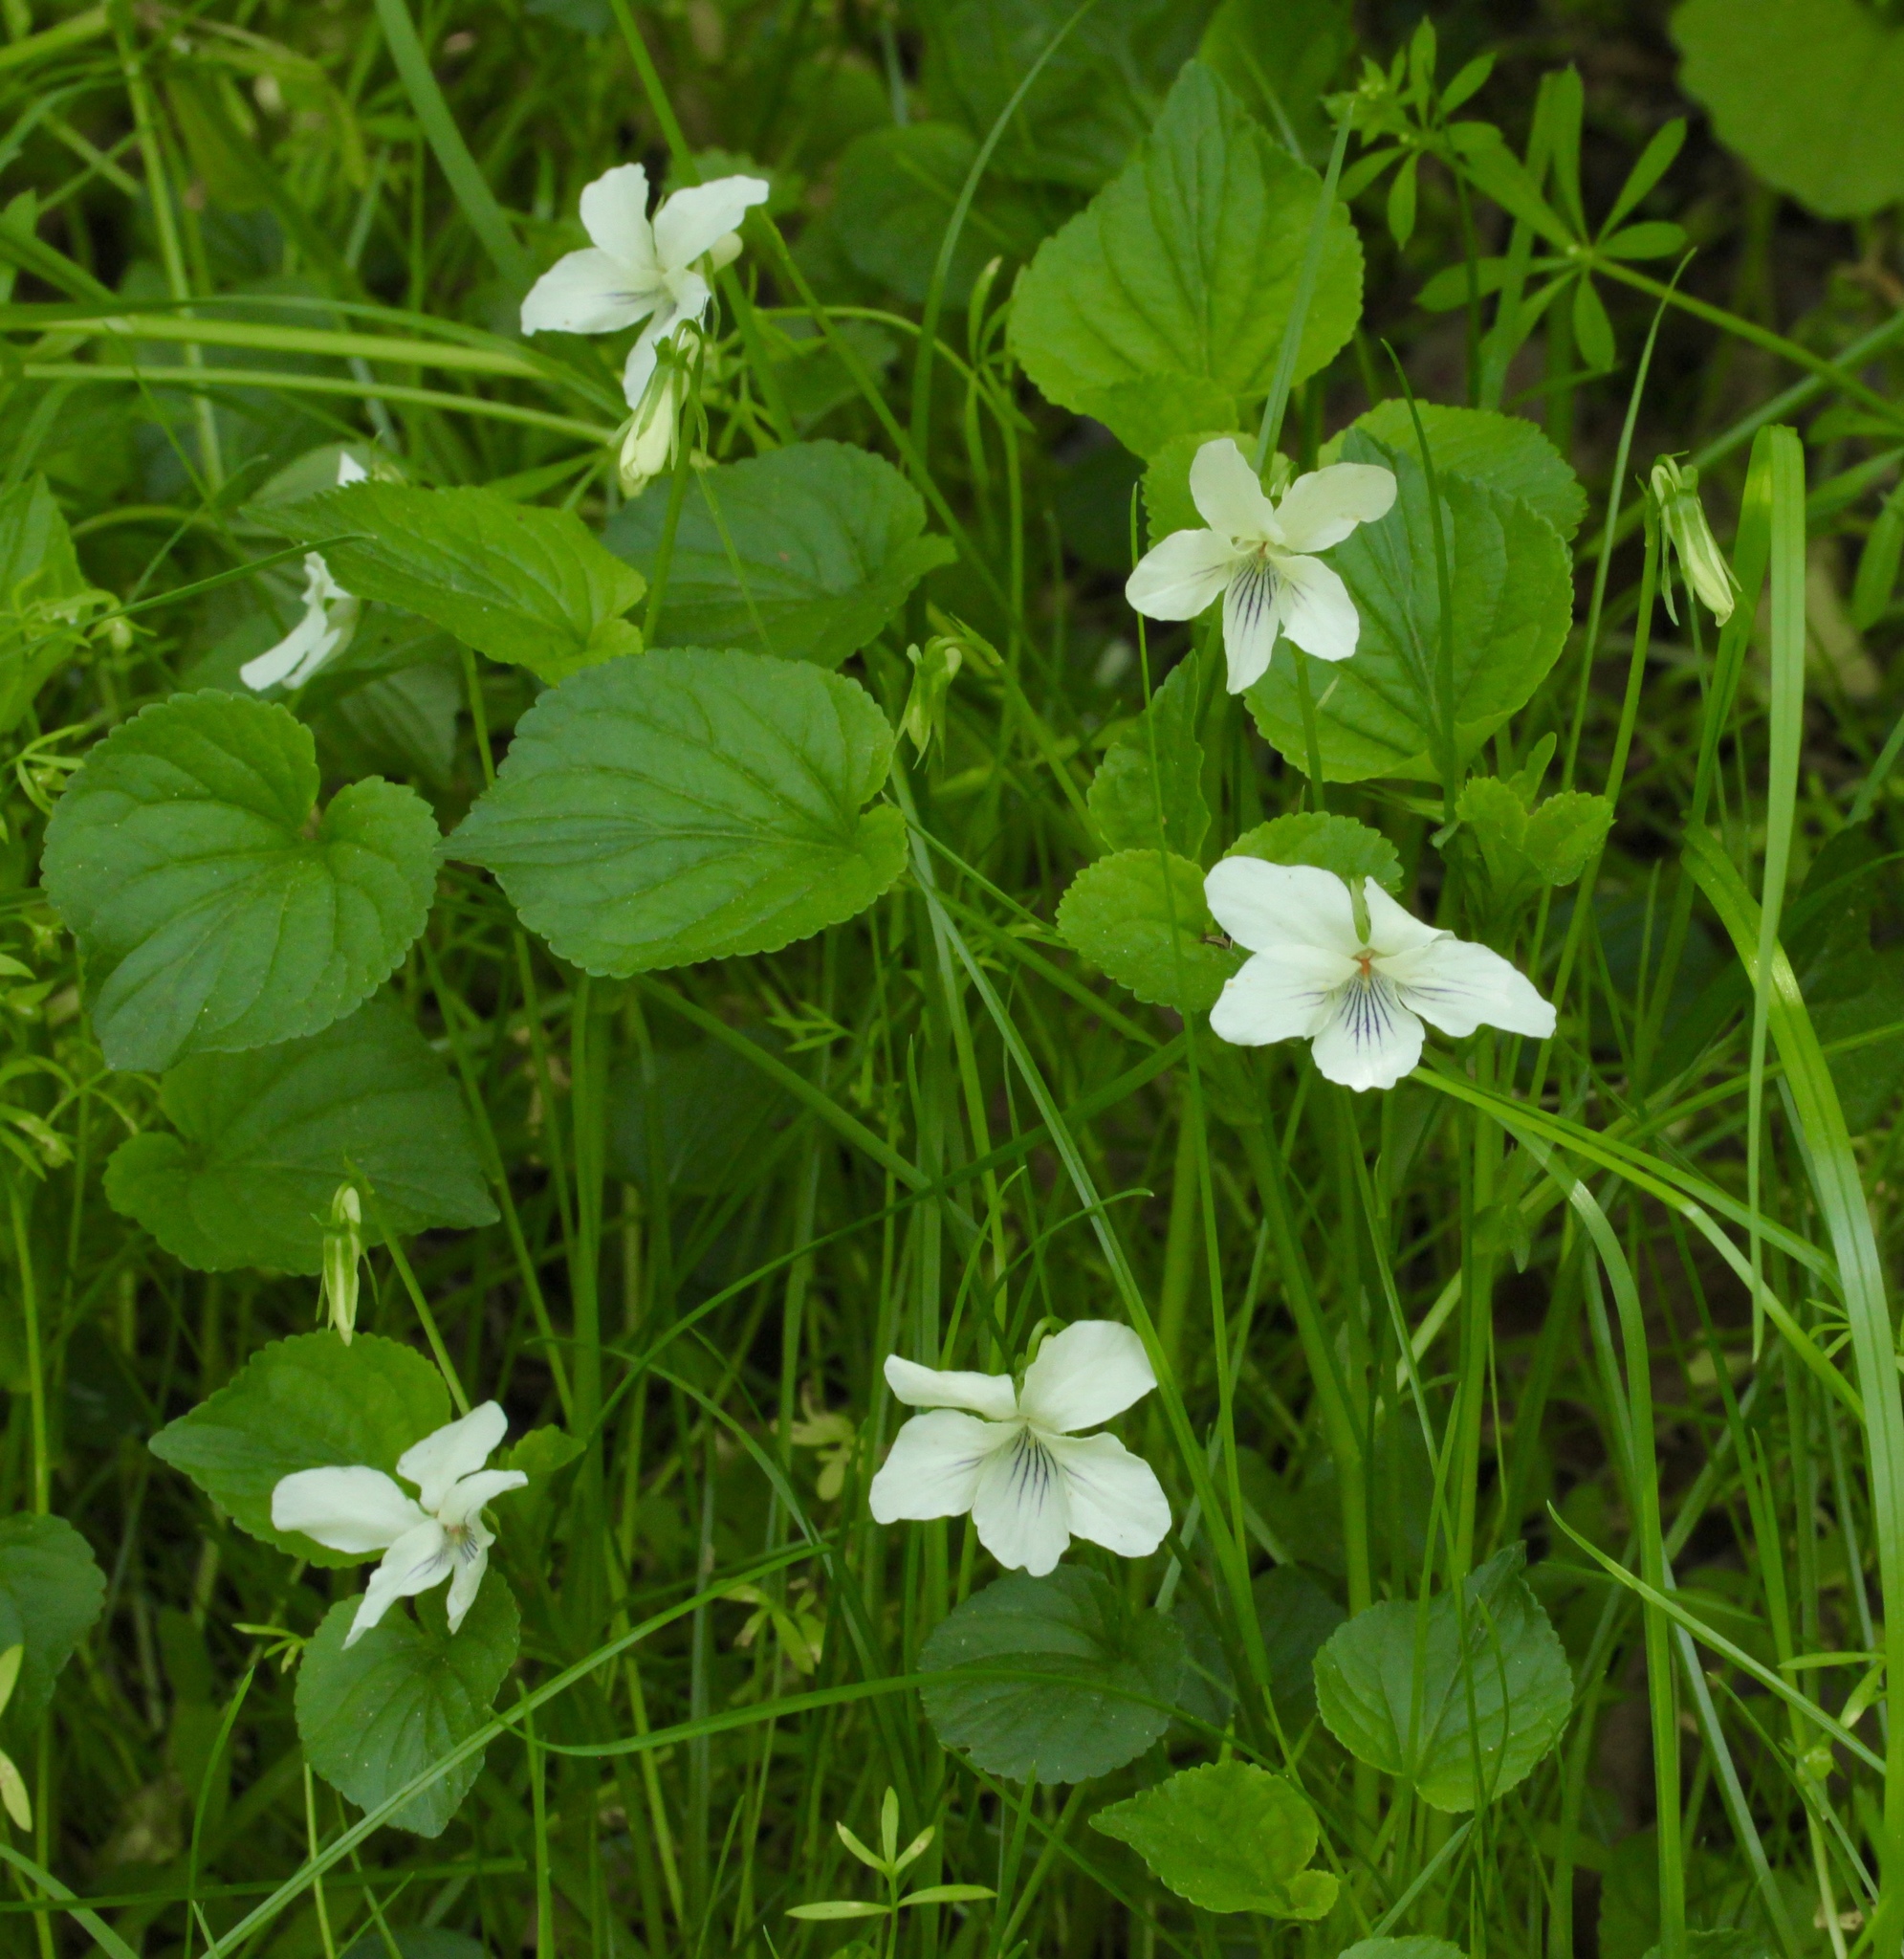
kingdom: Plantae
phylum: Tracheophyta
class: Magnoliopsida
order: Malpighiales
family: Violaceae
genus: Viola
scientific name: Viola striata
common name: Cream violet
